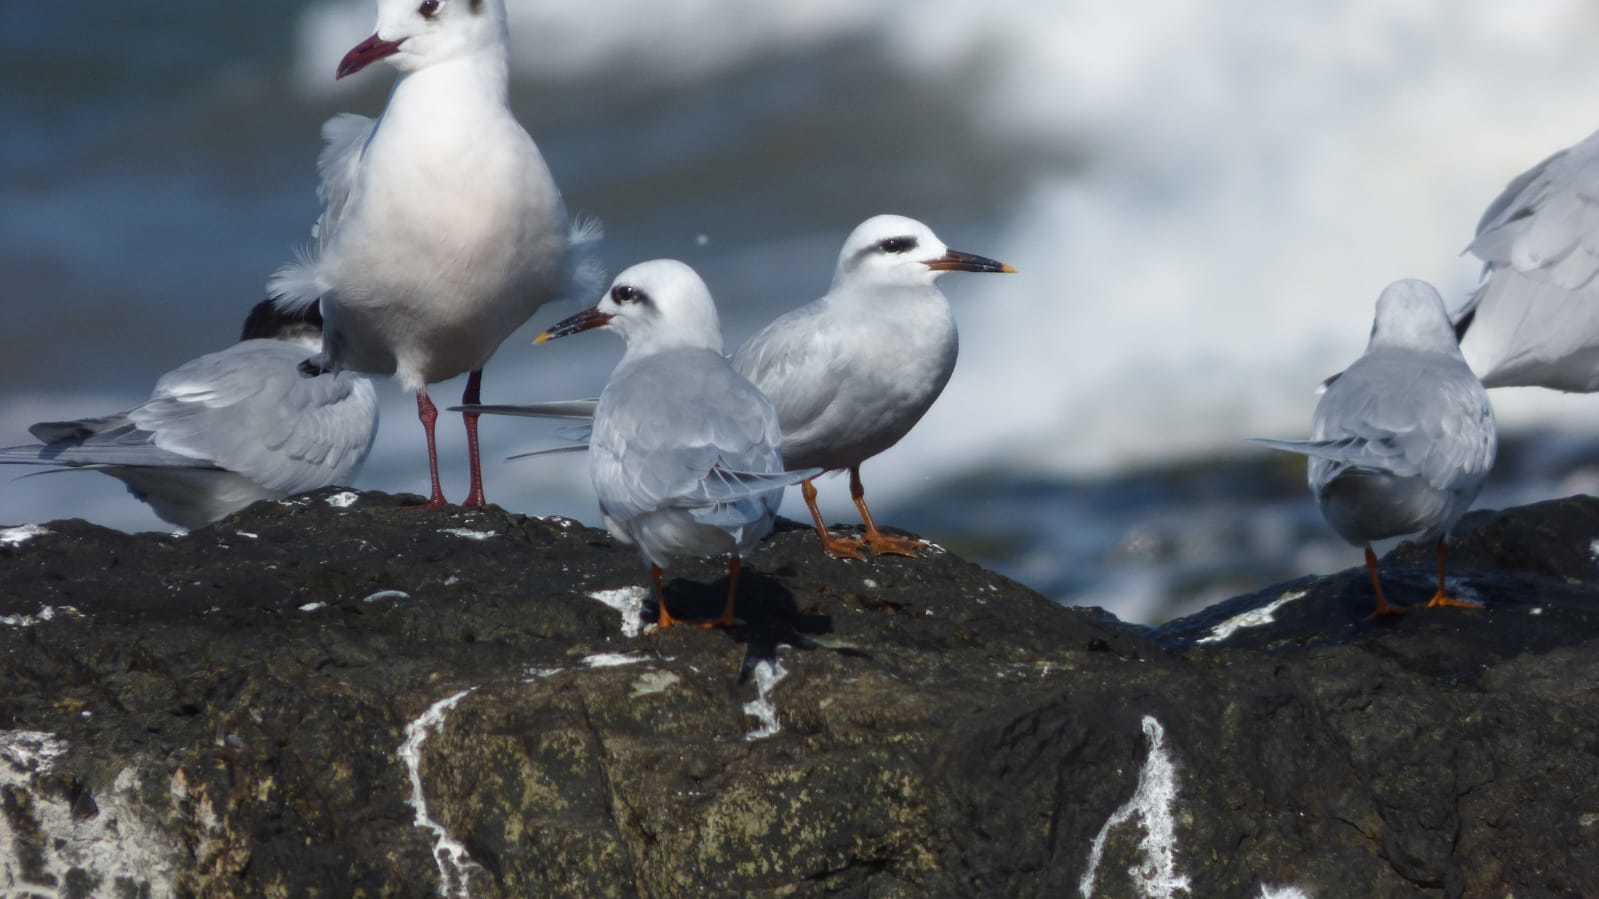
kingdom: Animalia
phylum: Chordata
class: Aves
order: Charadriiformes
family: Laridae
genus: Sterna
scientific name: Sterna trudeaui
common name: Snowy-crowned tern
